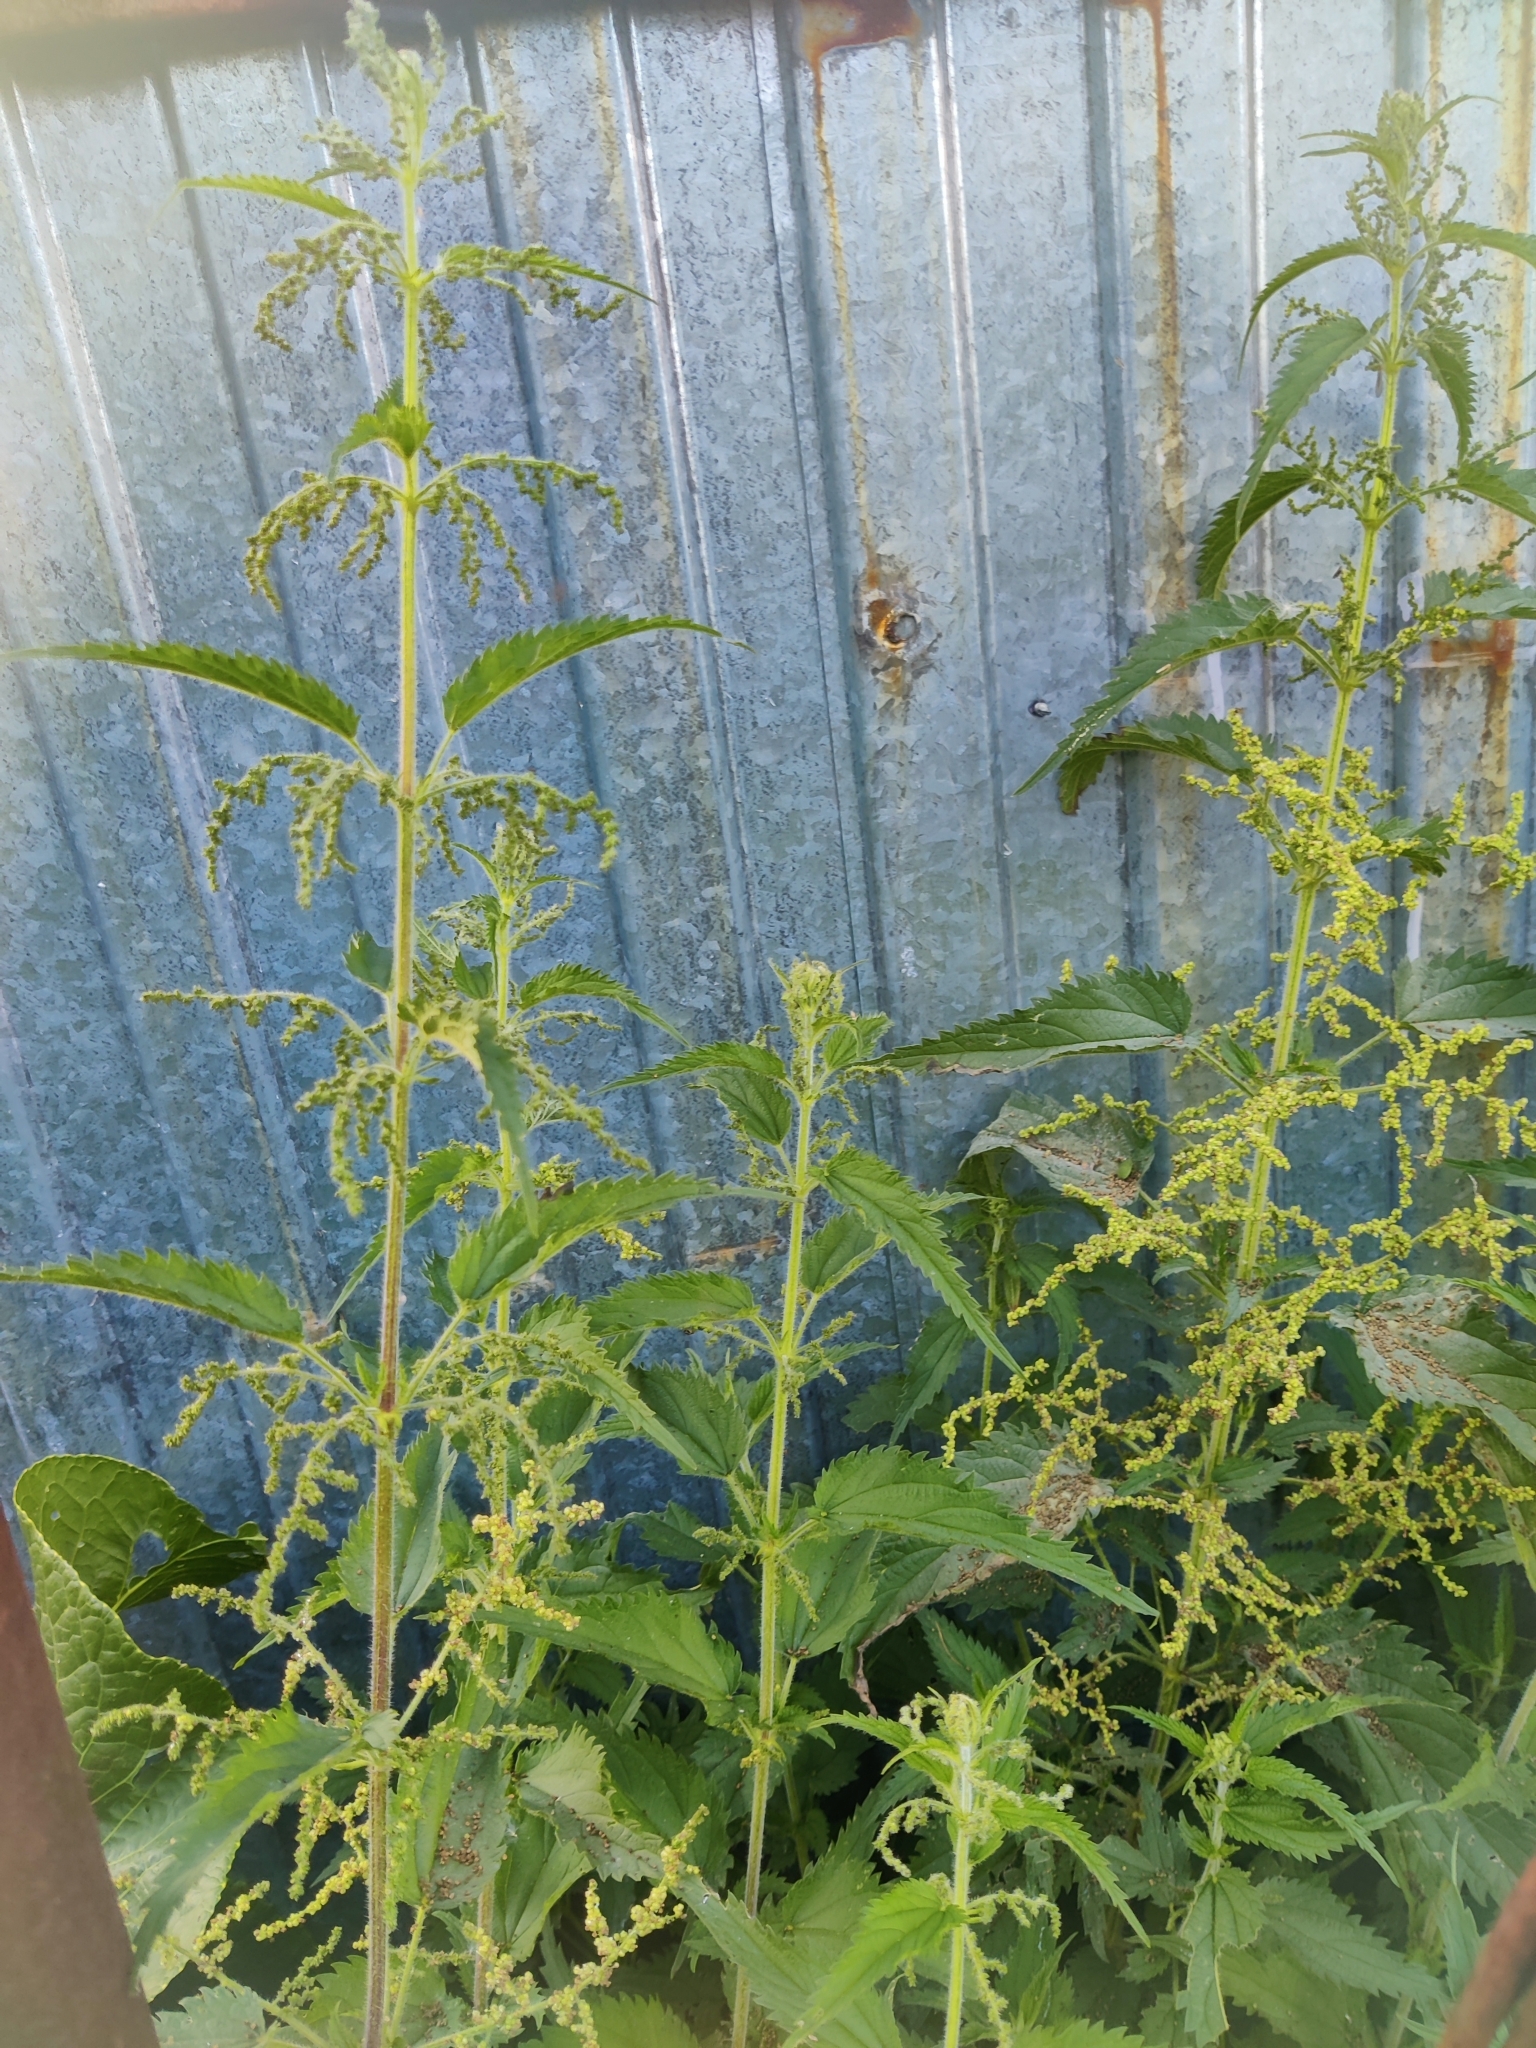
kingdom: Plantae
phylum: Tracheophyta
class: Magnoliopsida
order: Rosales
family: Urticaceae
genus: Urtica
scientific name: Urtica dioica
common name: Common nettle
